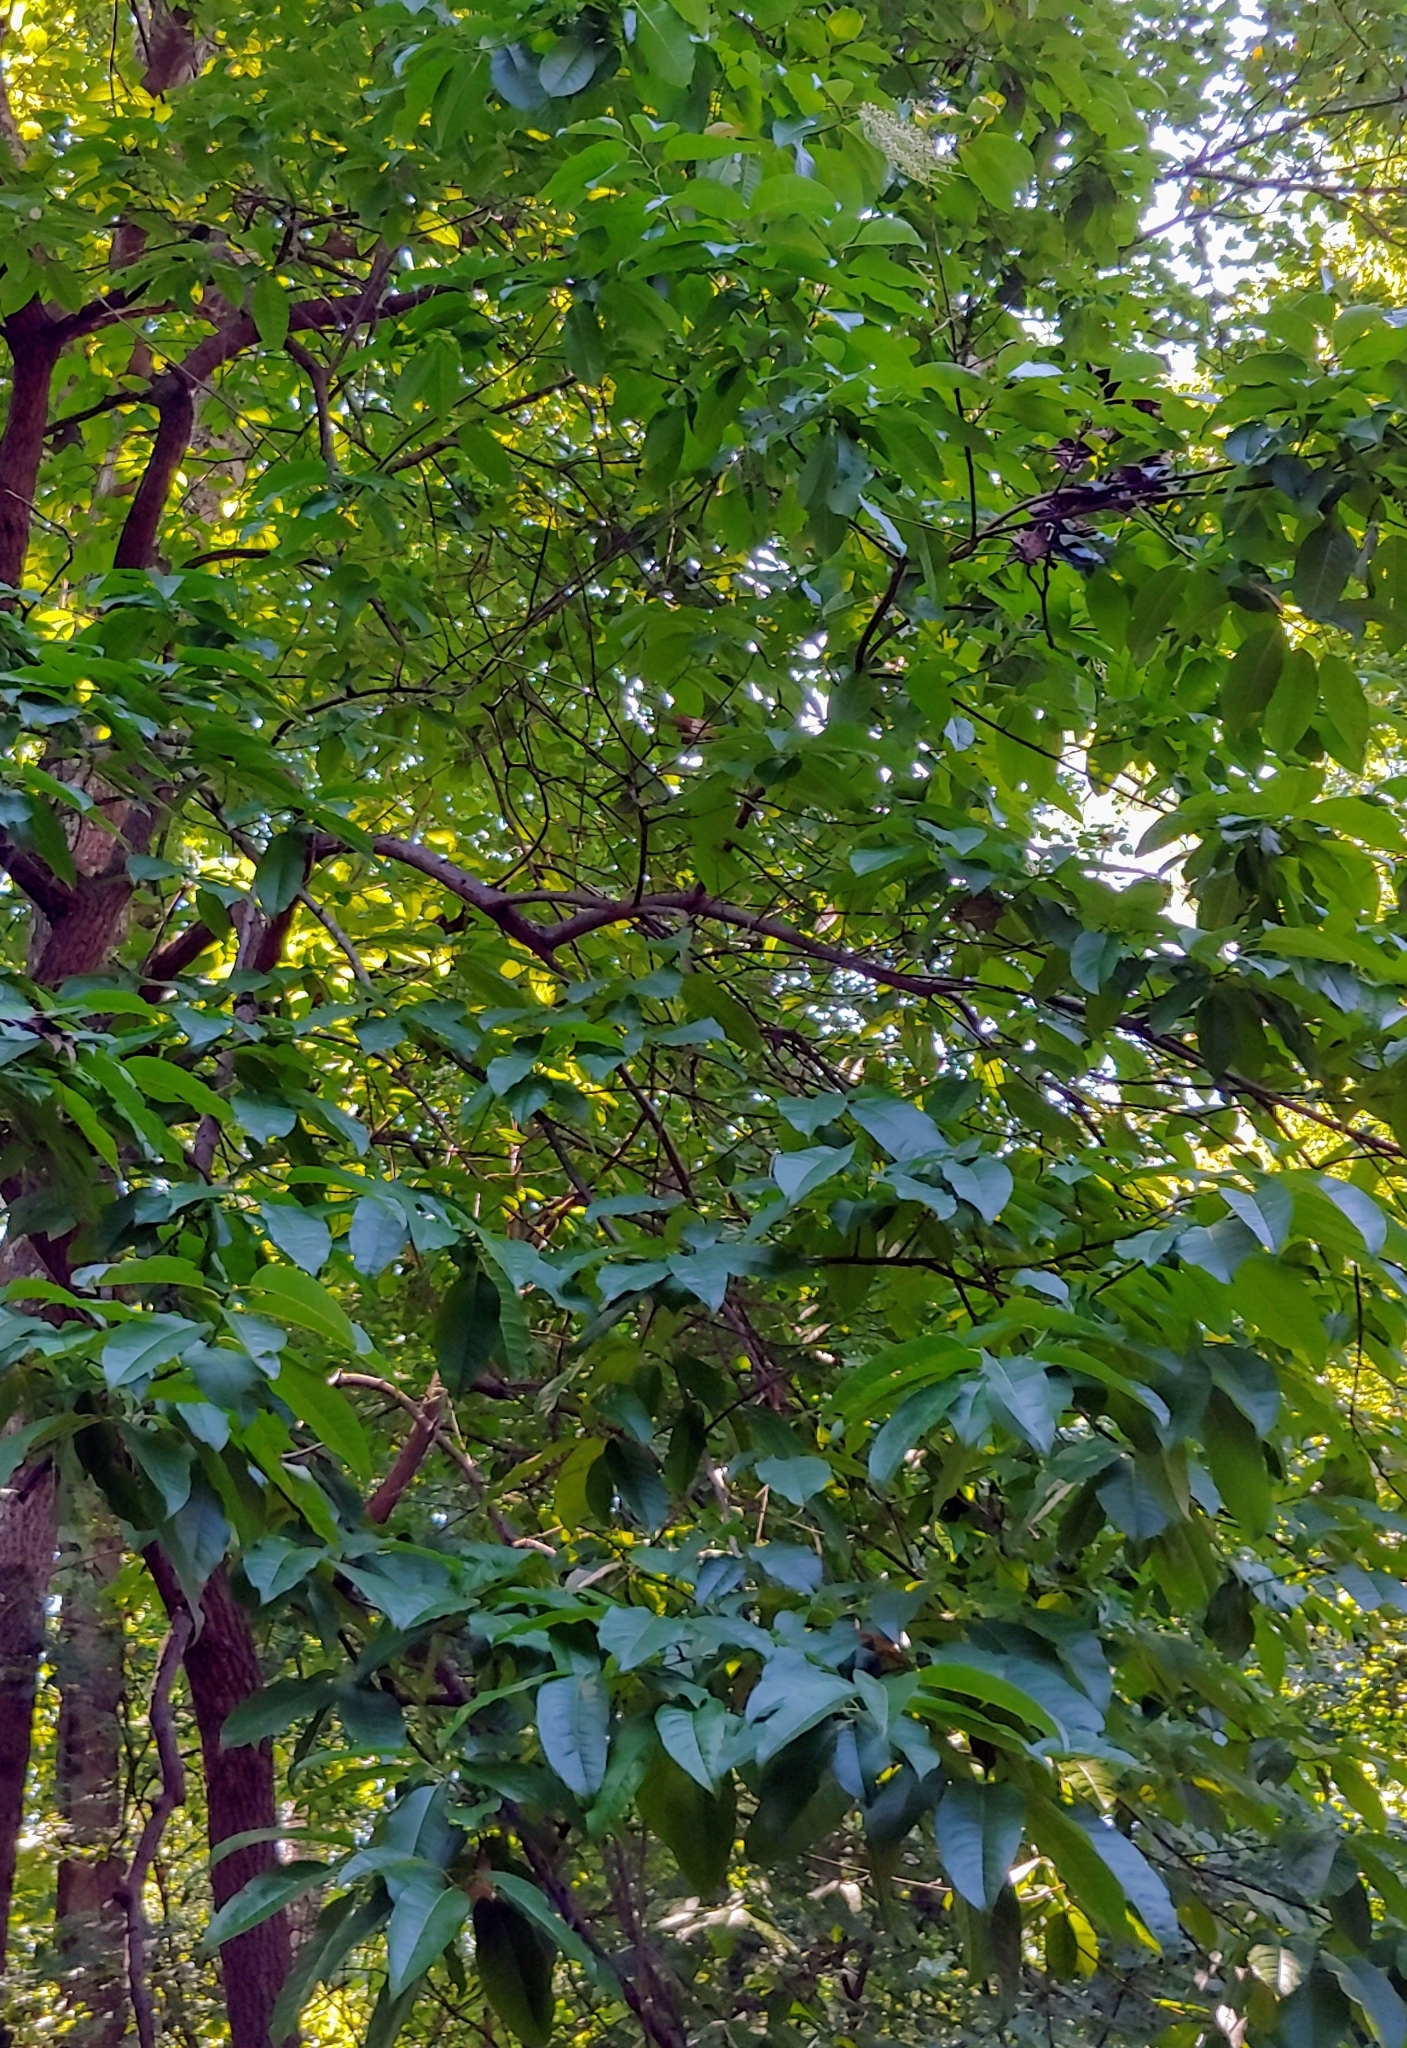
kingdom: Plantae
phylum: Tracheophyta
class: Magnoliopsida
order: Ericales
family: Ericaceae
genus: Oxydendrum
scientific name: Oxydendrum arboreum
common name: Sourwood
